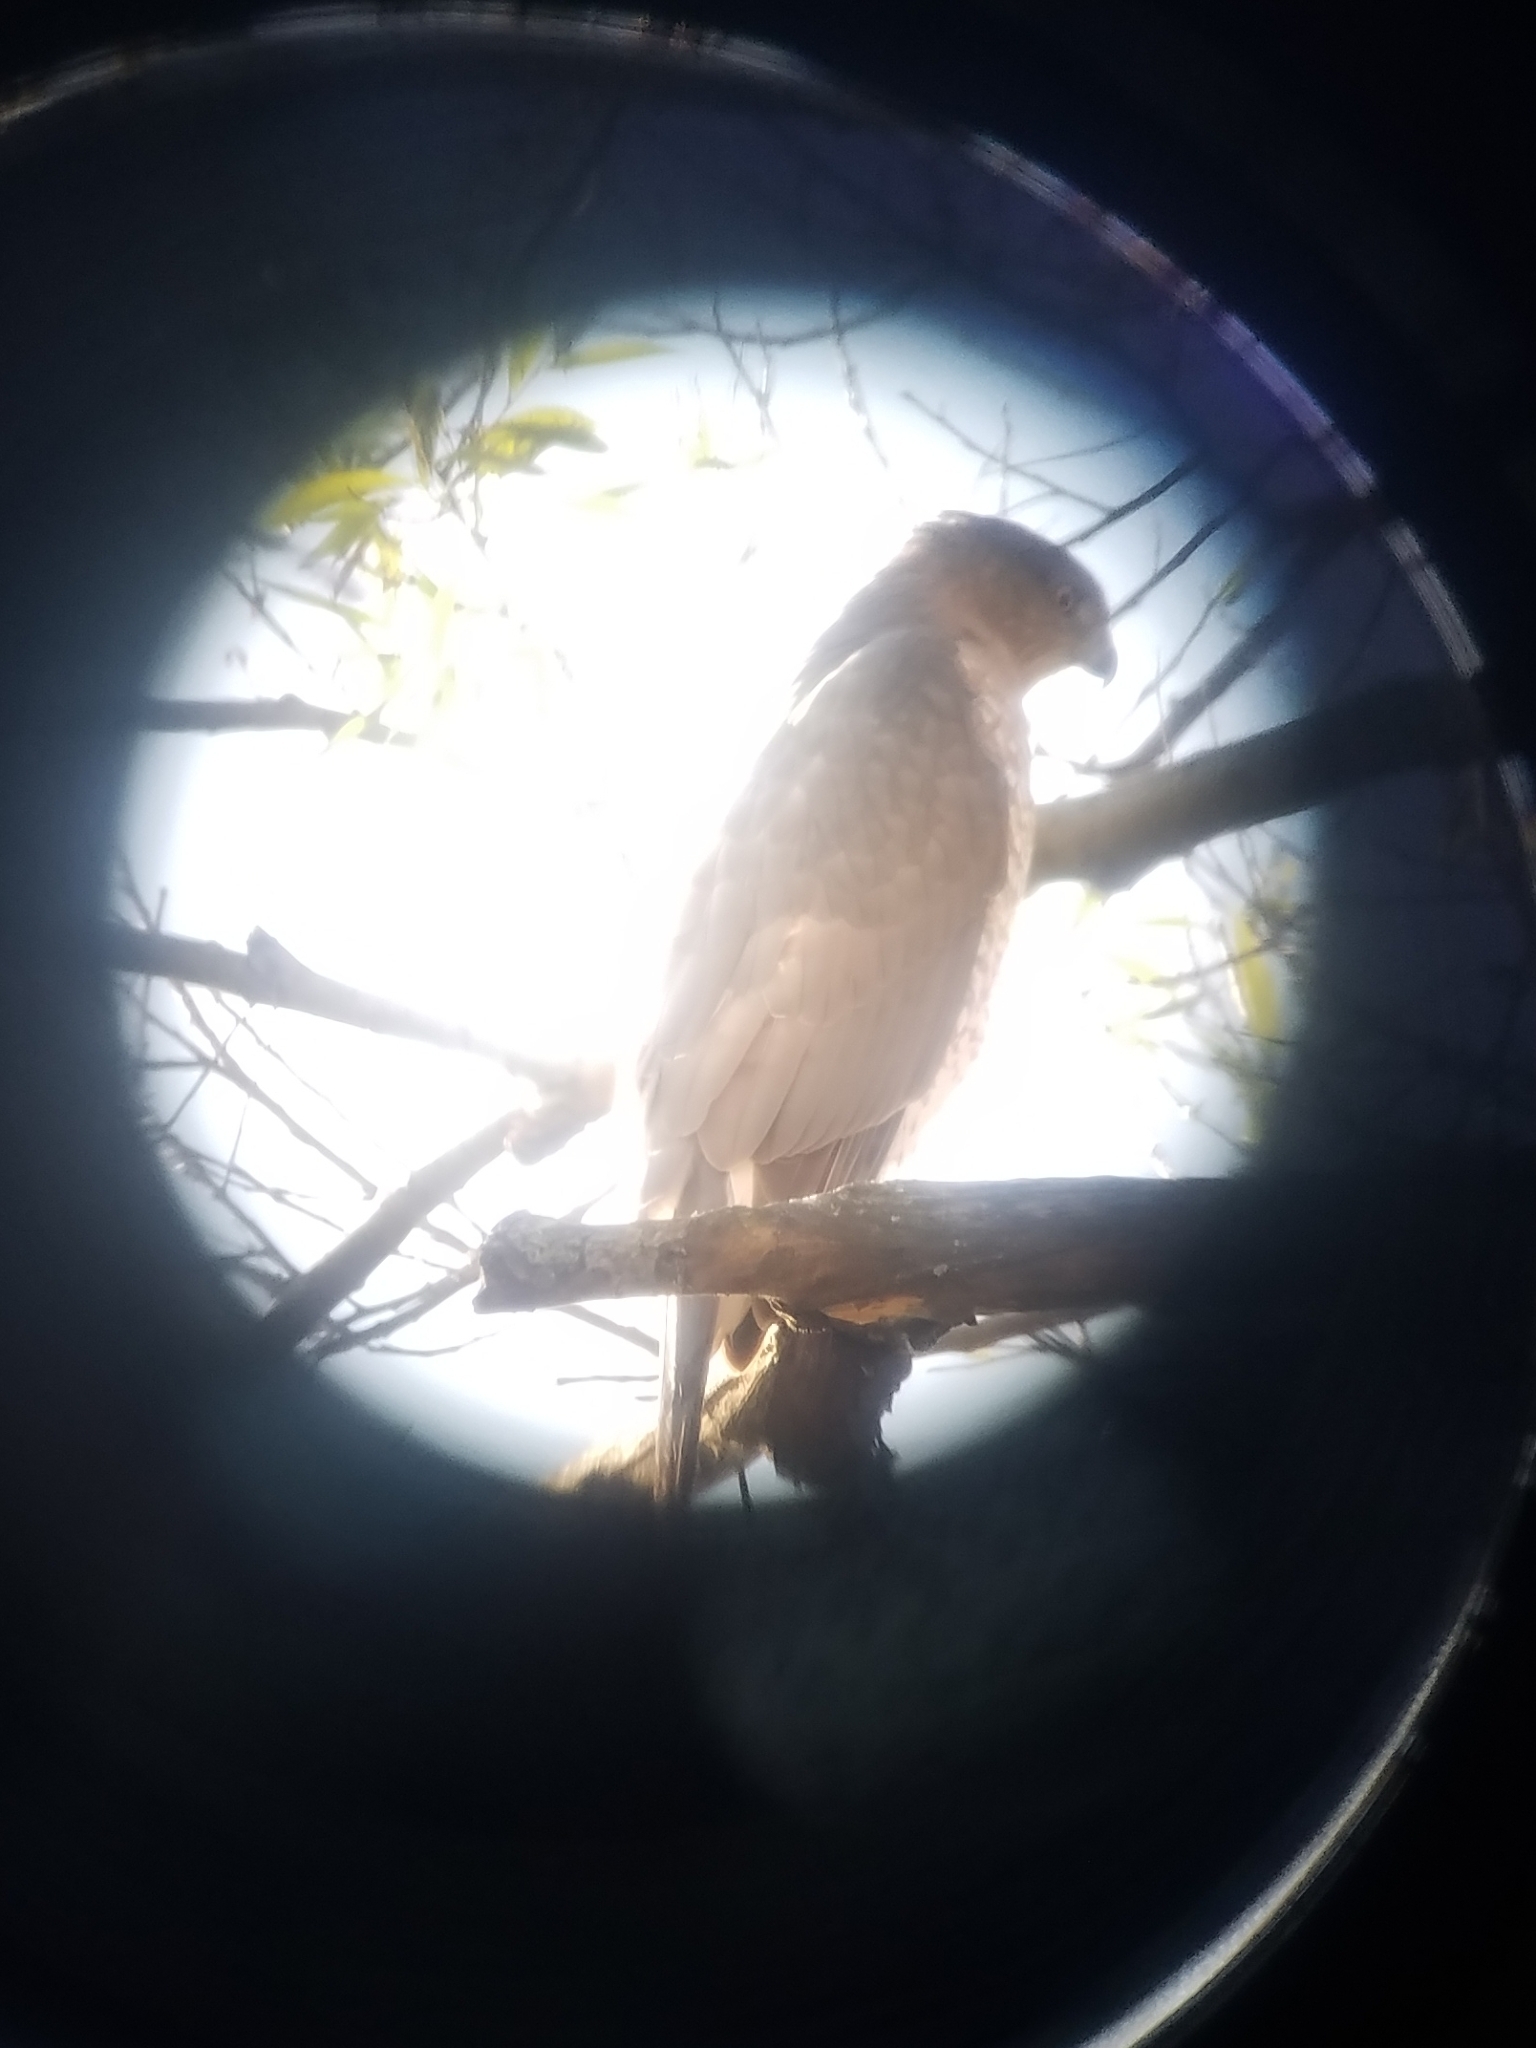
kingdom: Animalia
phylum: Chordata
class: Aves
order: Accipitriformes
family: Accipitridae
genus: Accipiter
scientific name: Accipiter cooperii
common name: Cooper's hawk
